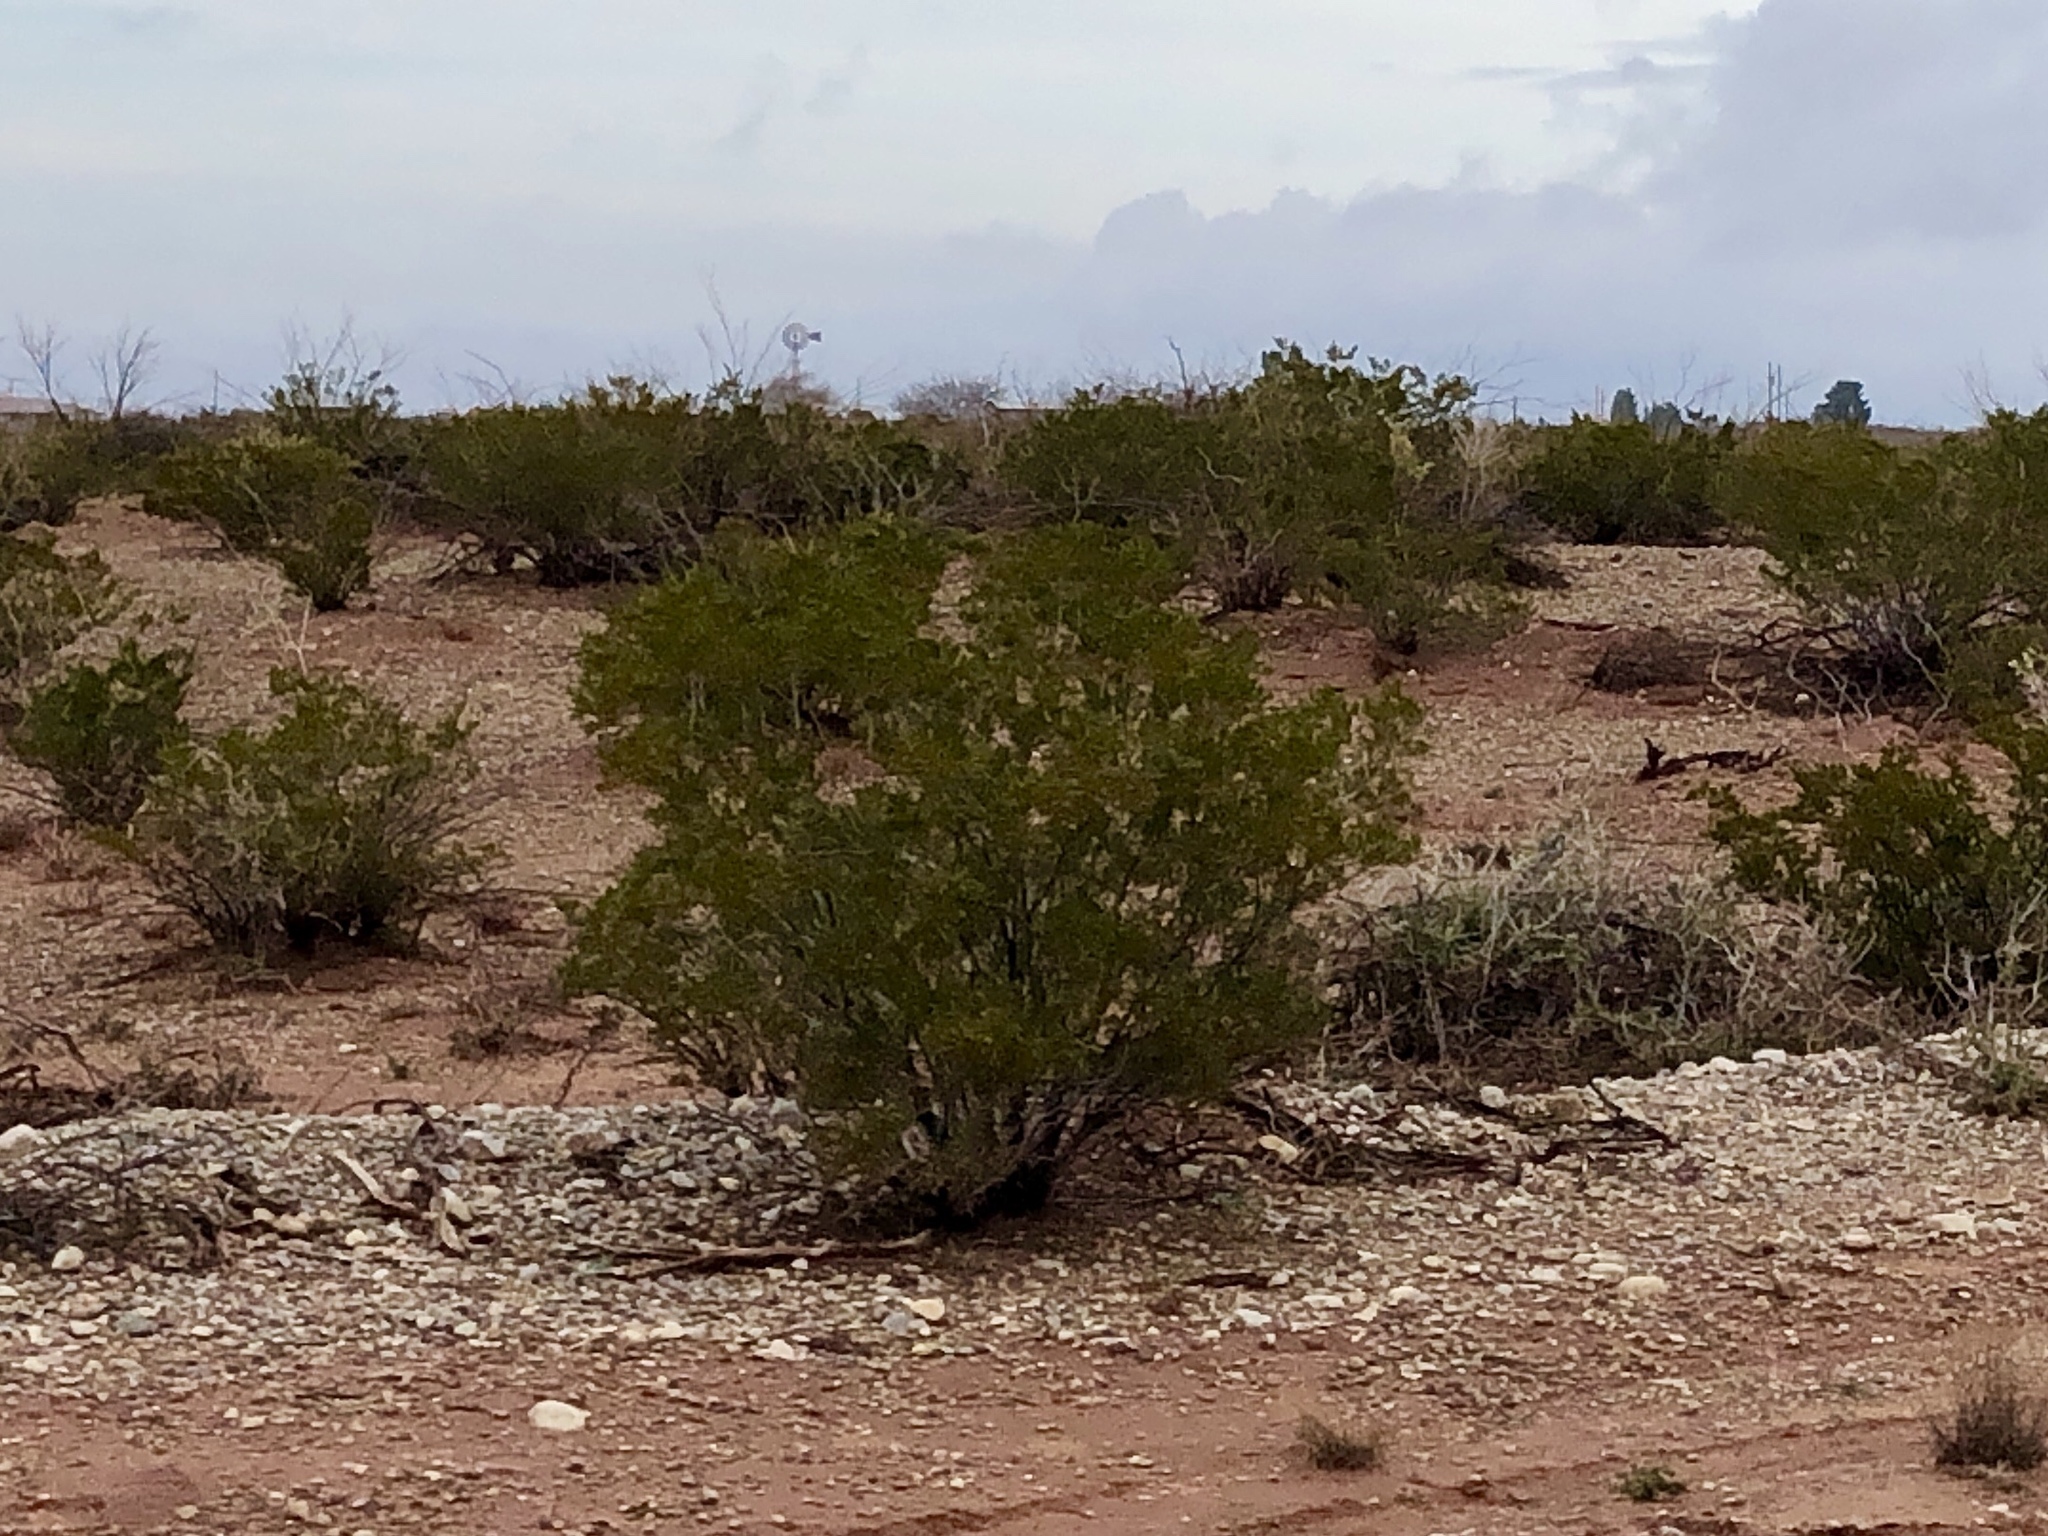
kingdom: Plantae
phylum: Tracheophyta
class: Magnoliopsida
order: Zygophyllales
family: Zygophyllaceae
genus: Larrea
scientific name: Larrea tridentata
